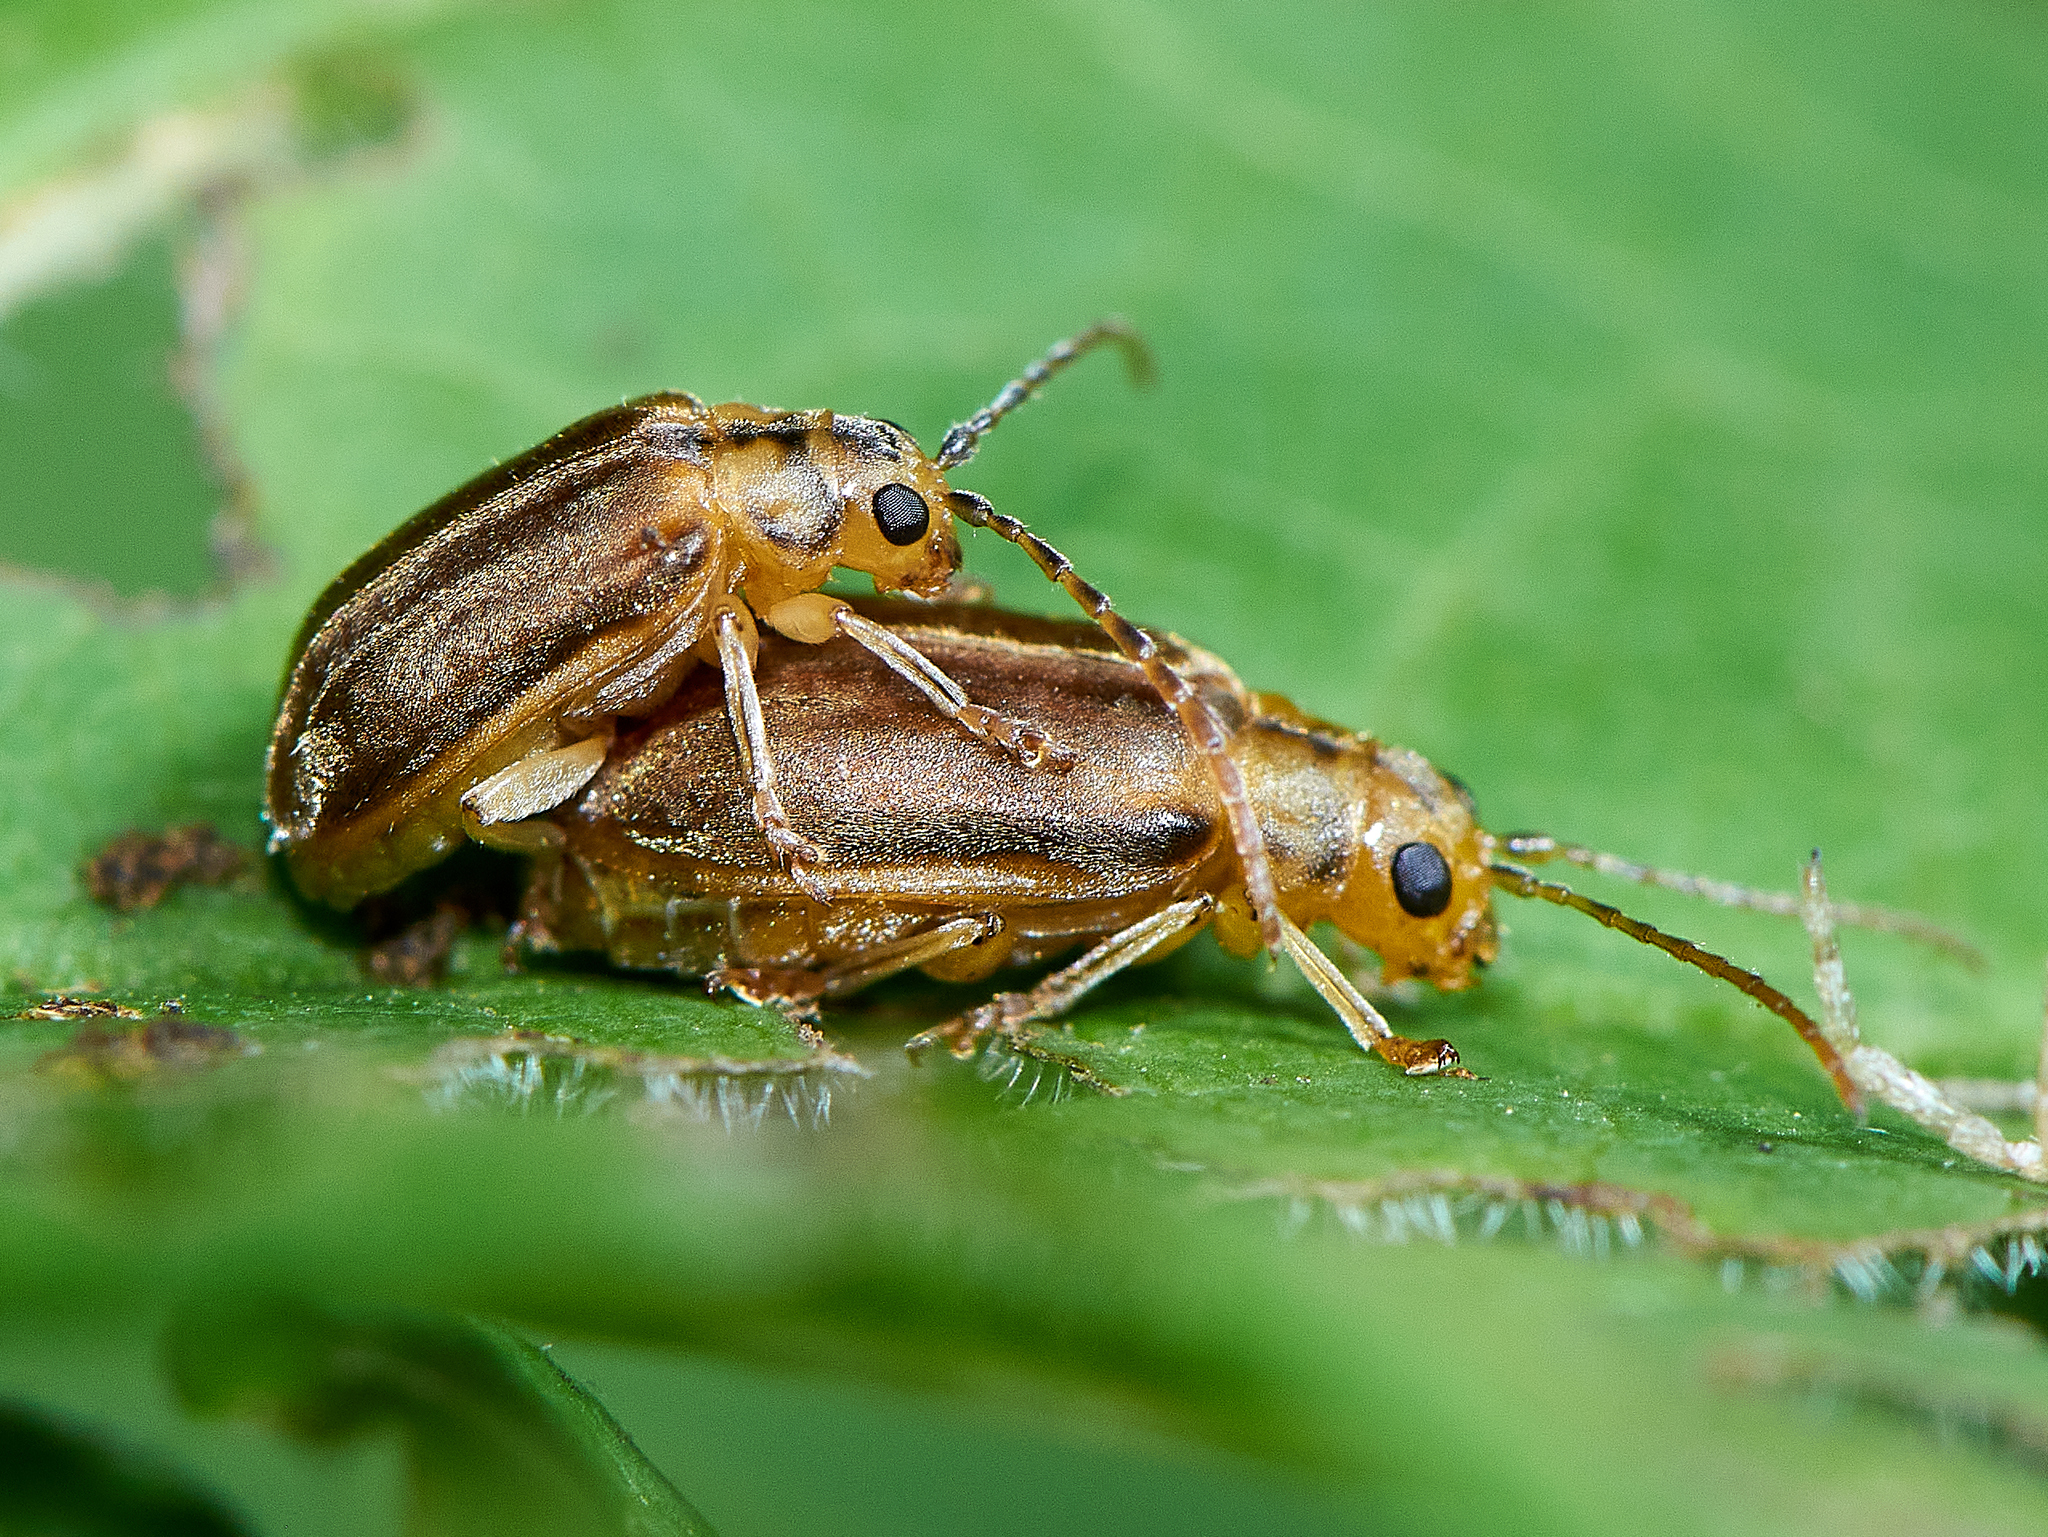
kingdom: Animalia
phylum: Arthropoda
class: Insecta
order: Coleoptera
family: Chrysomelidae
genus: Pyrrhalta
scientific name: Pyrrhalta viburni
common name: Guelder-rose leaf beetle
